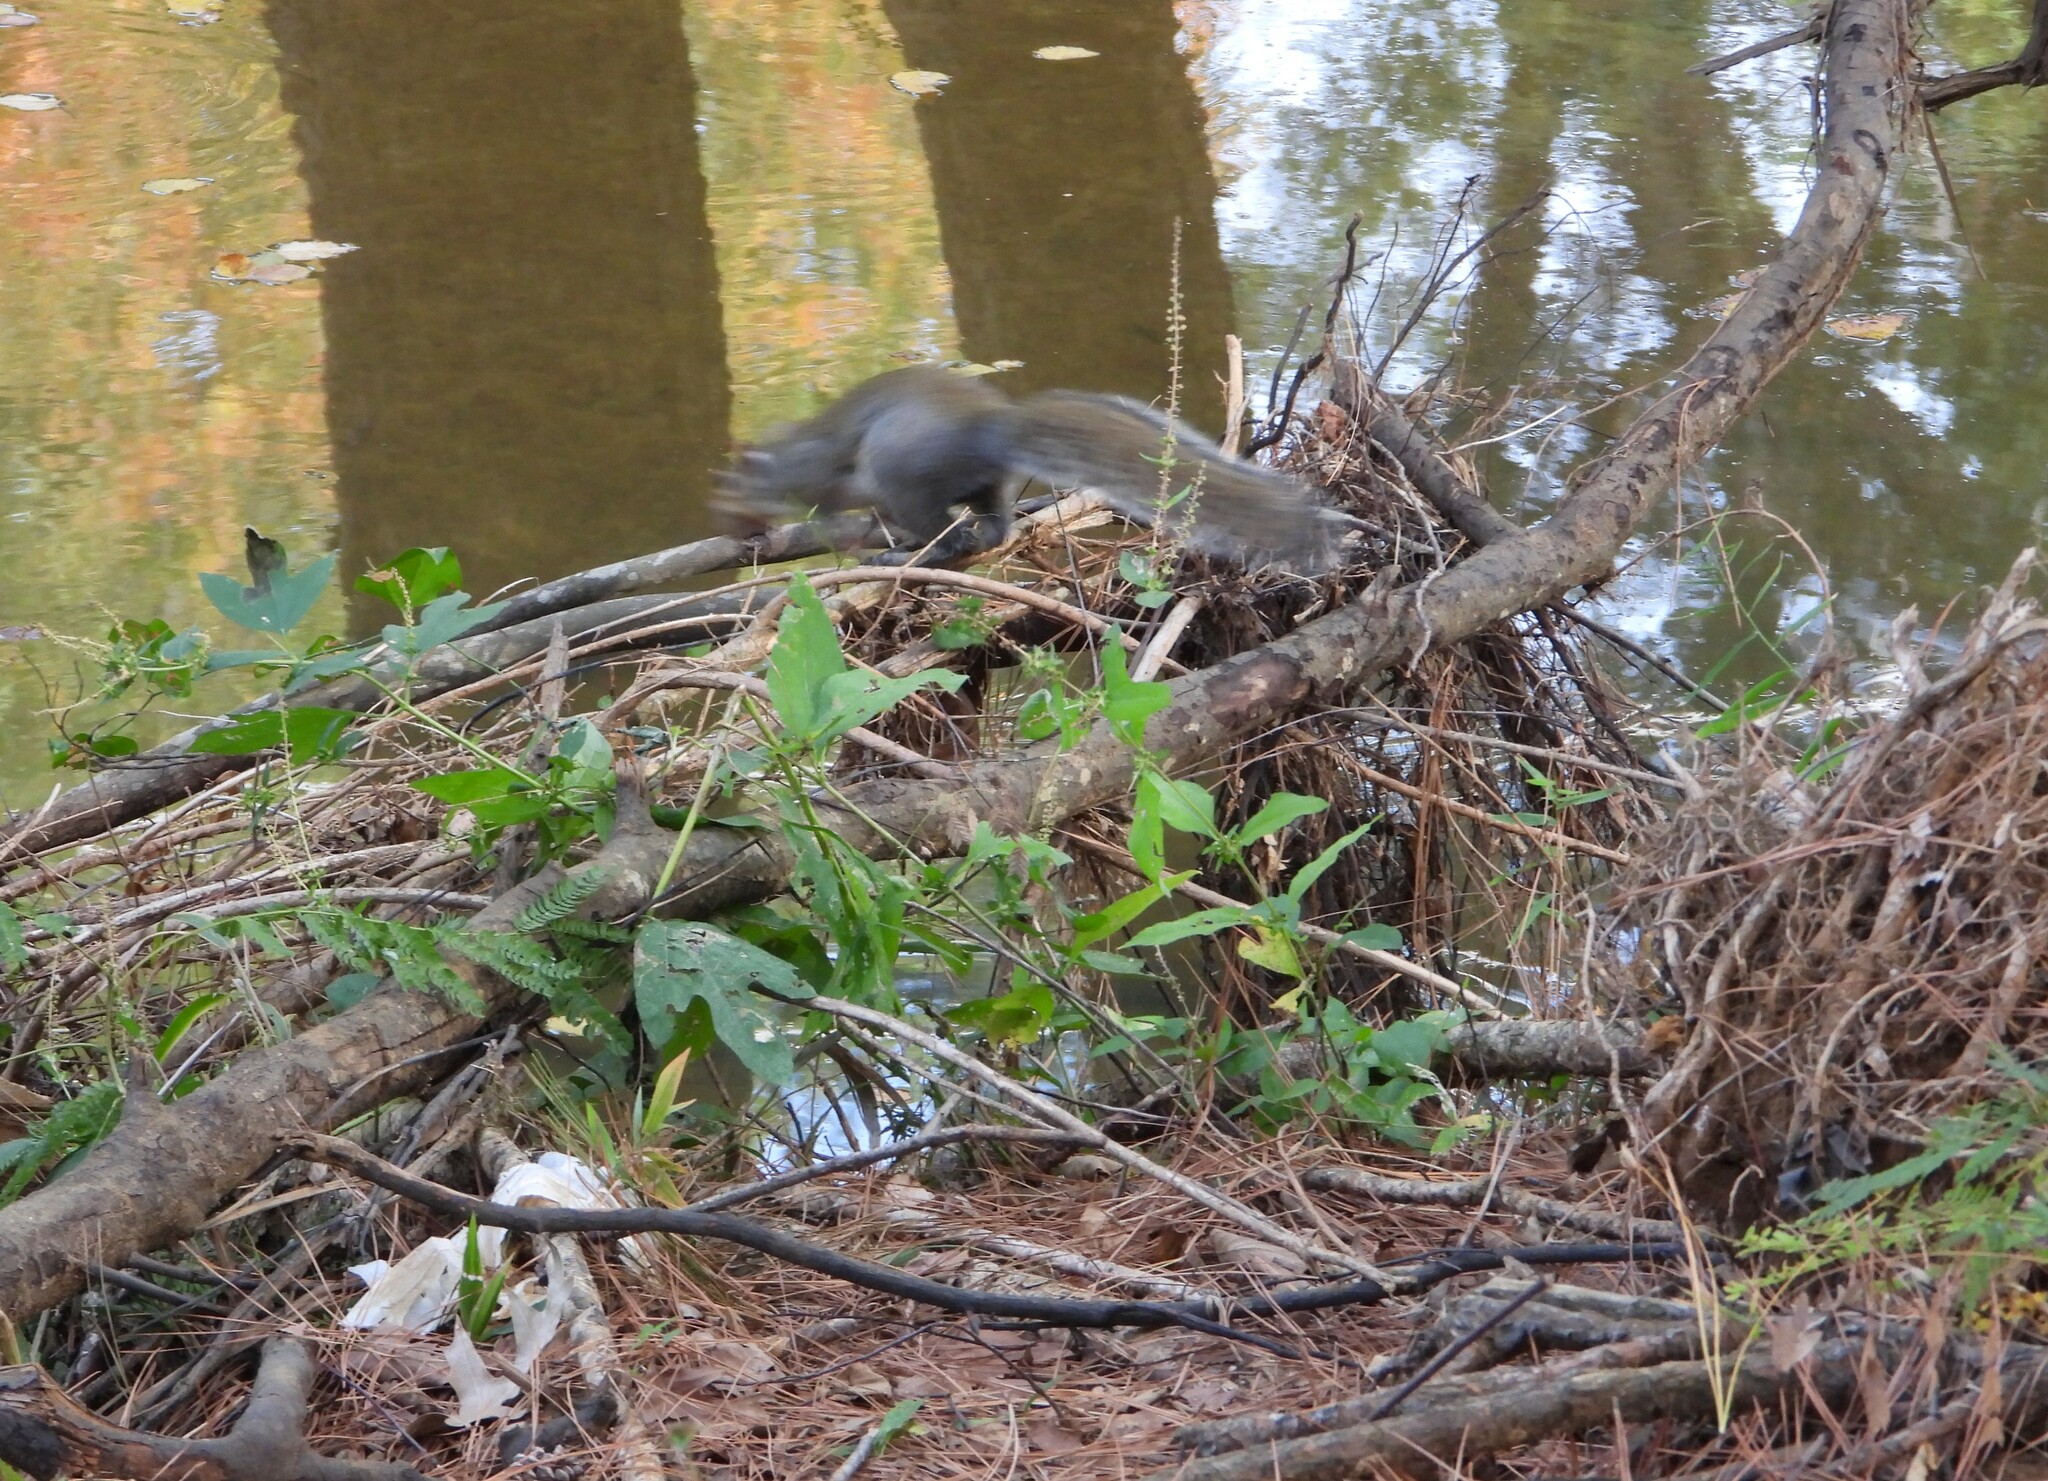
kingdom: Animalia
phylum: Chordata
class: Mammalia
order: Rodentia
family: Sciuridae
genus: Sciurus
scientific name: Sciurus carolinensis
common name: Eastern gray squirrel
